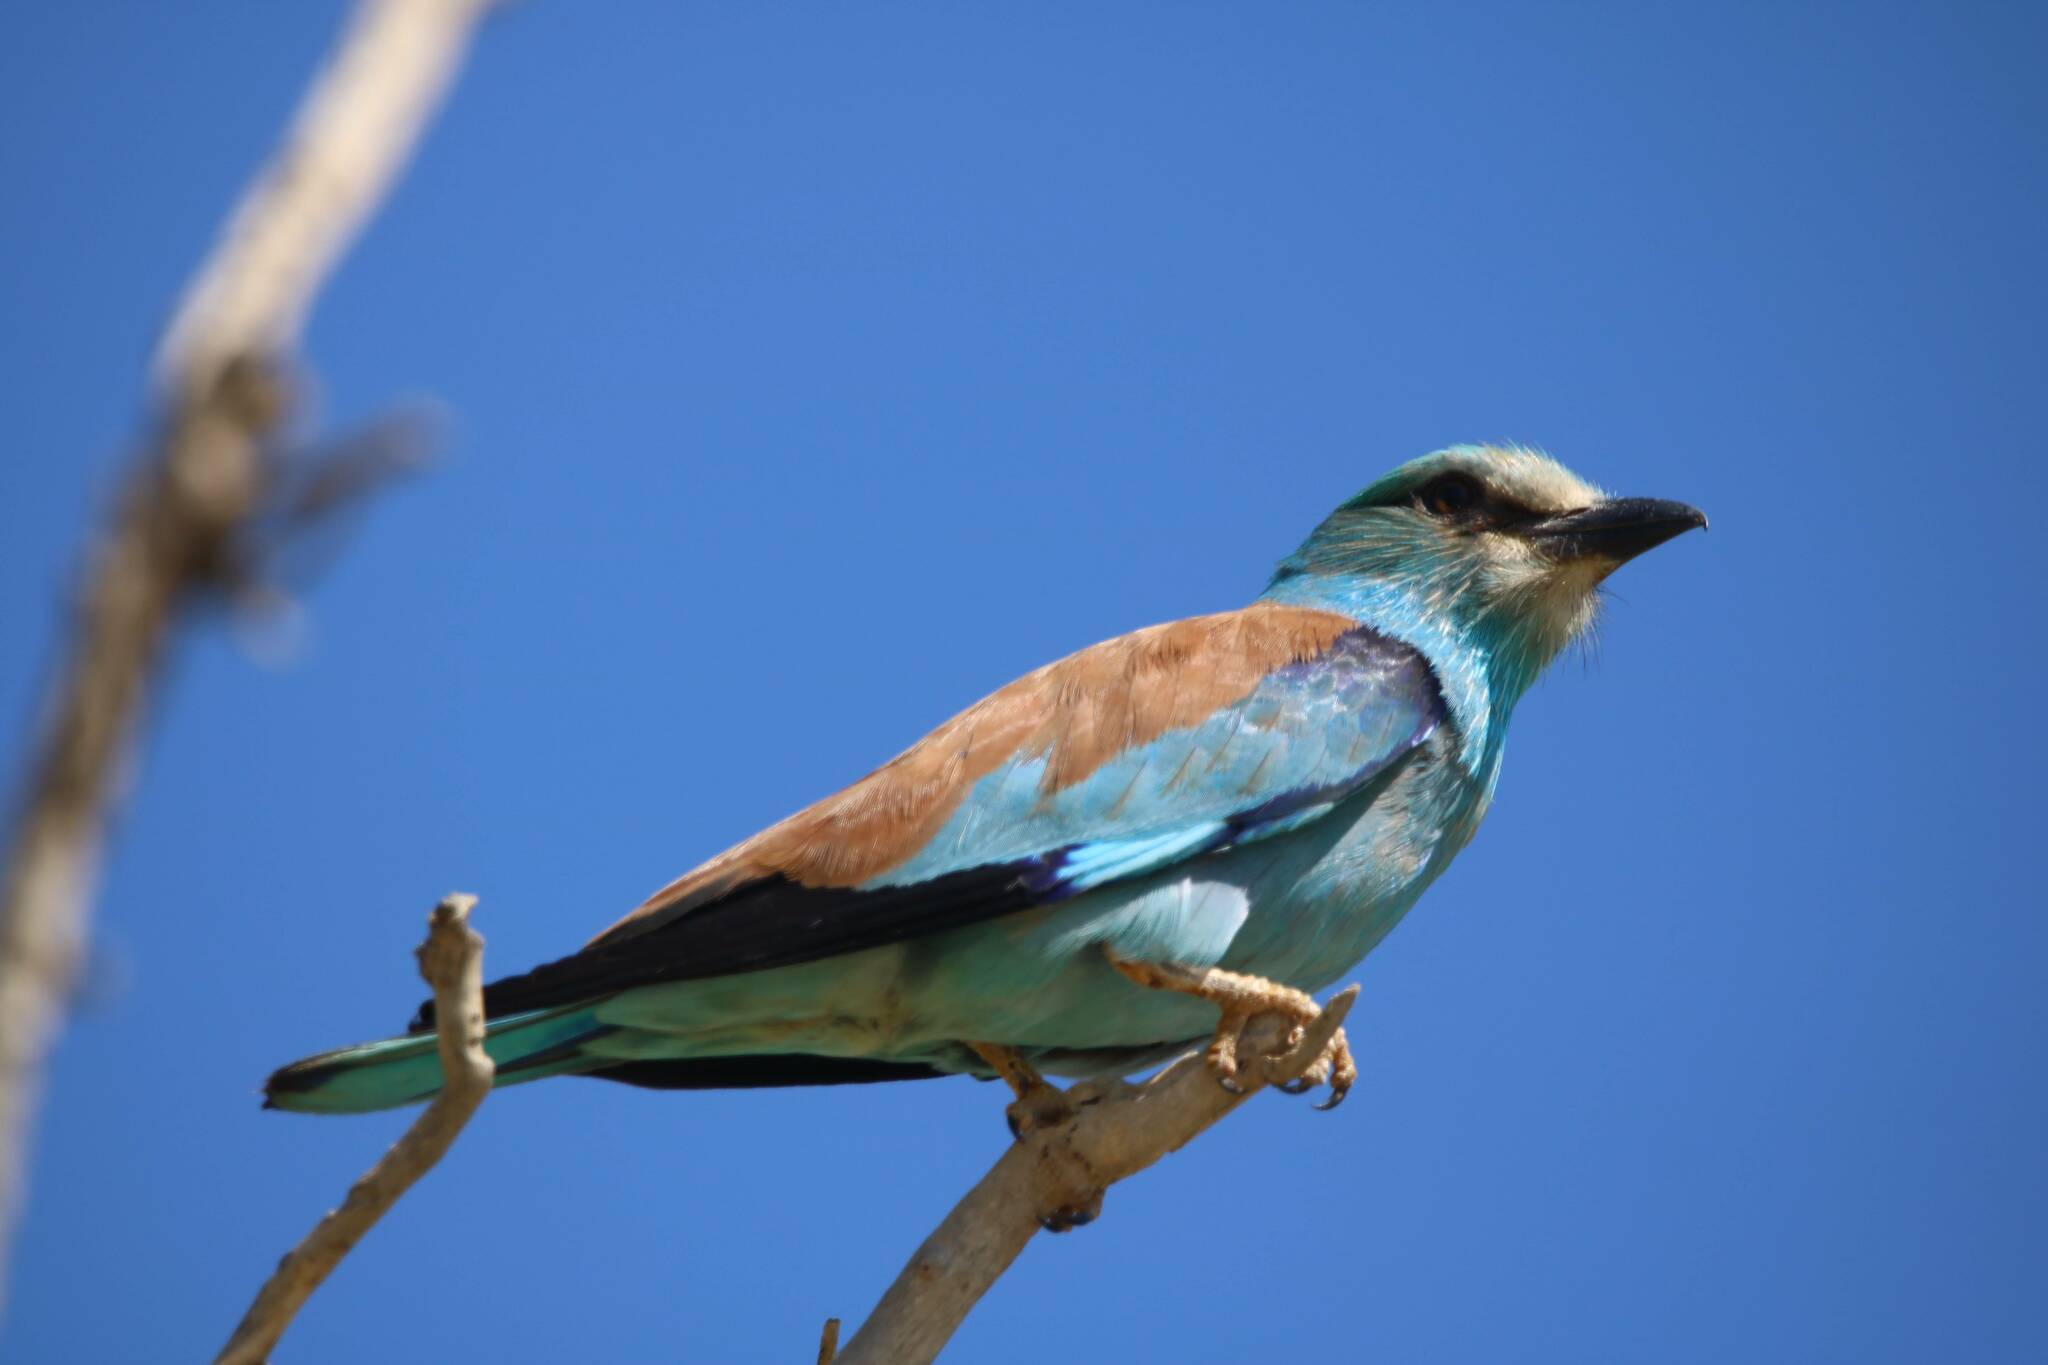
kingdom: Animalia
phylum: Chordata
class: Aves
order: Coraciiformes
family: Coraciidae
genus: Coracias
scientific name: Coracias garrulus
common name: European roller
